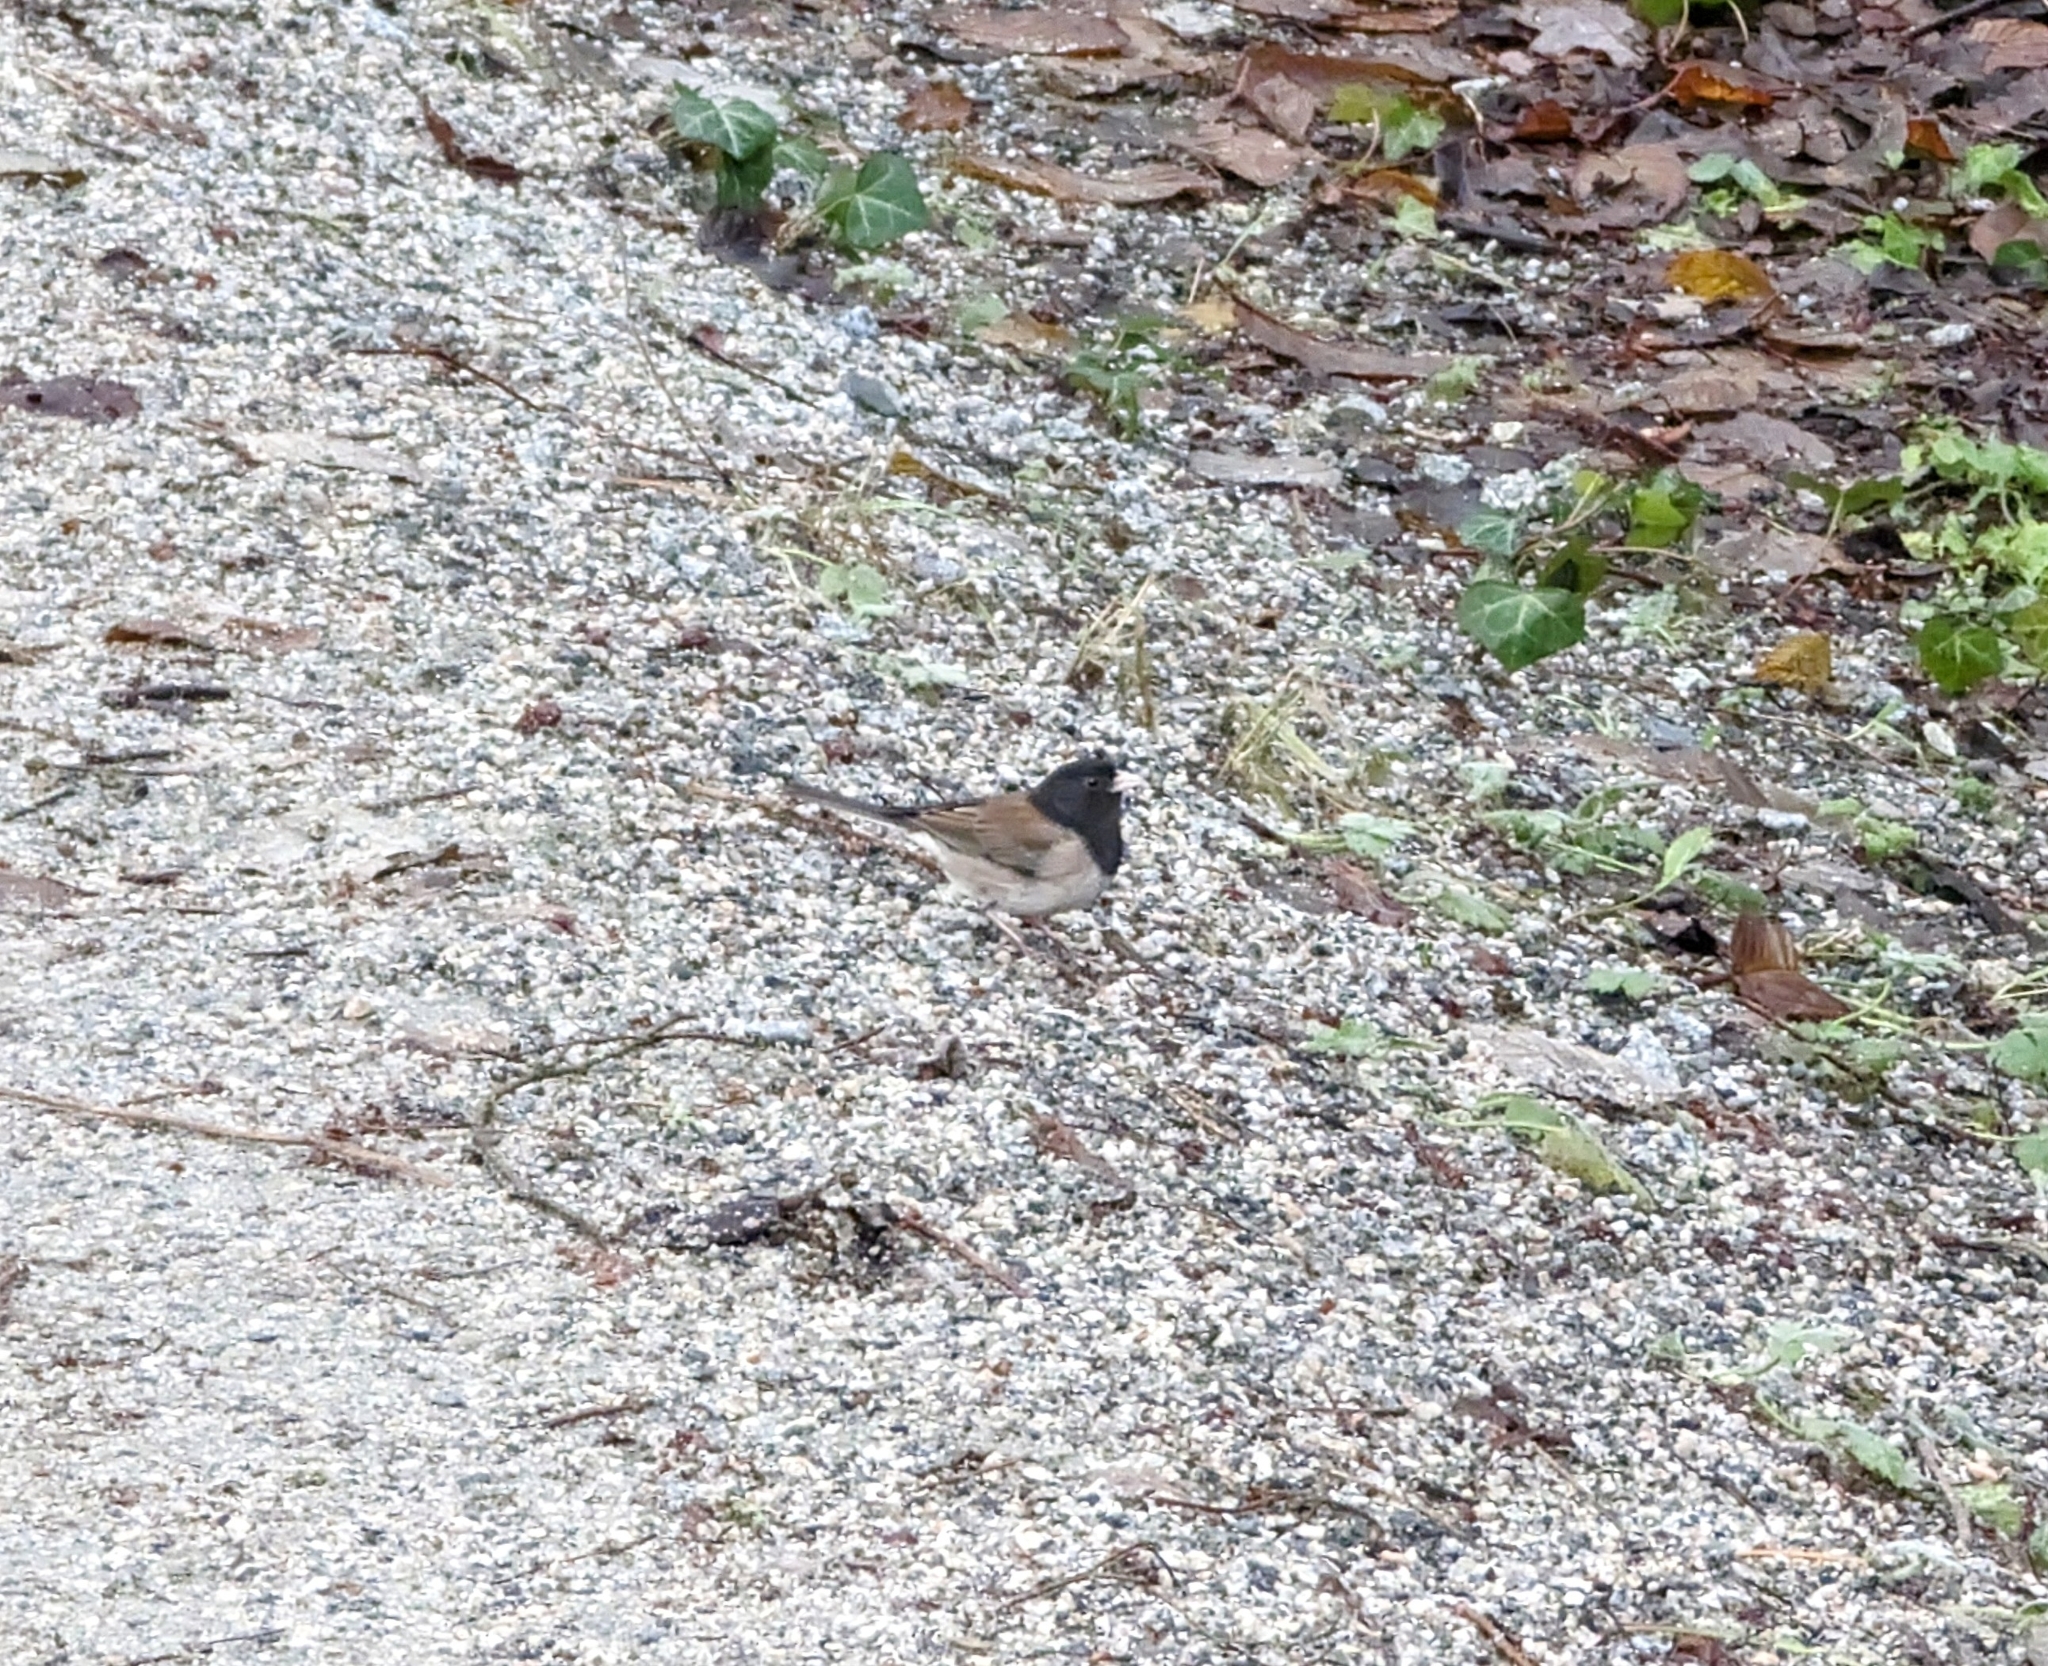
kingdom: Animalia
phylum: Chordata
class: Aves
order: Passeriformes
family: Passerellidae
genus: Junco
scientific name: Junco hyemalis
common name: Dark-eyed junco
